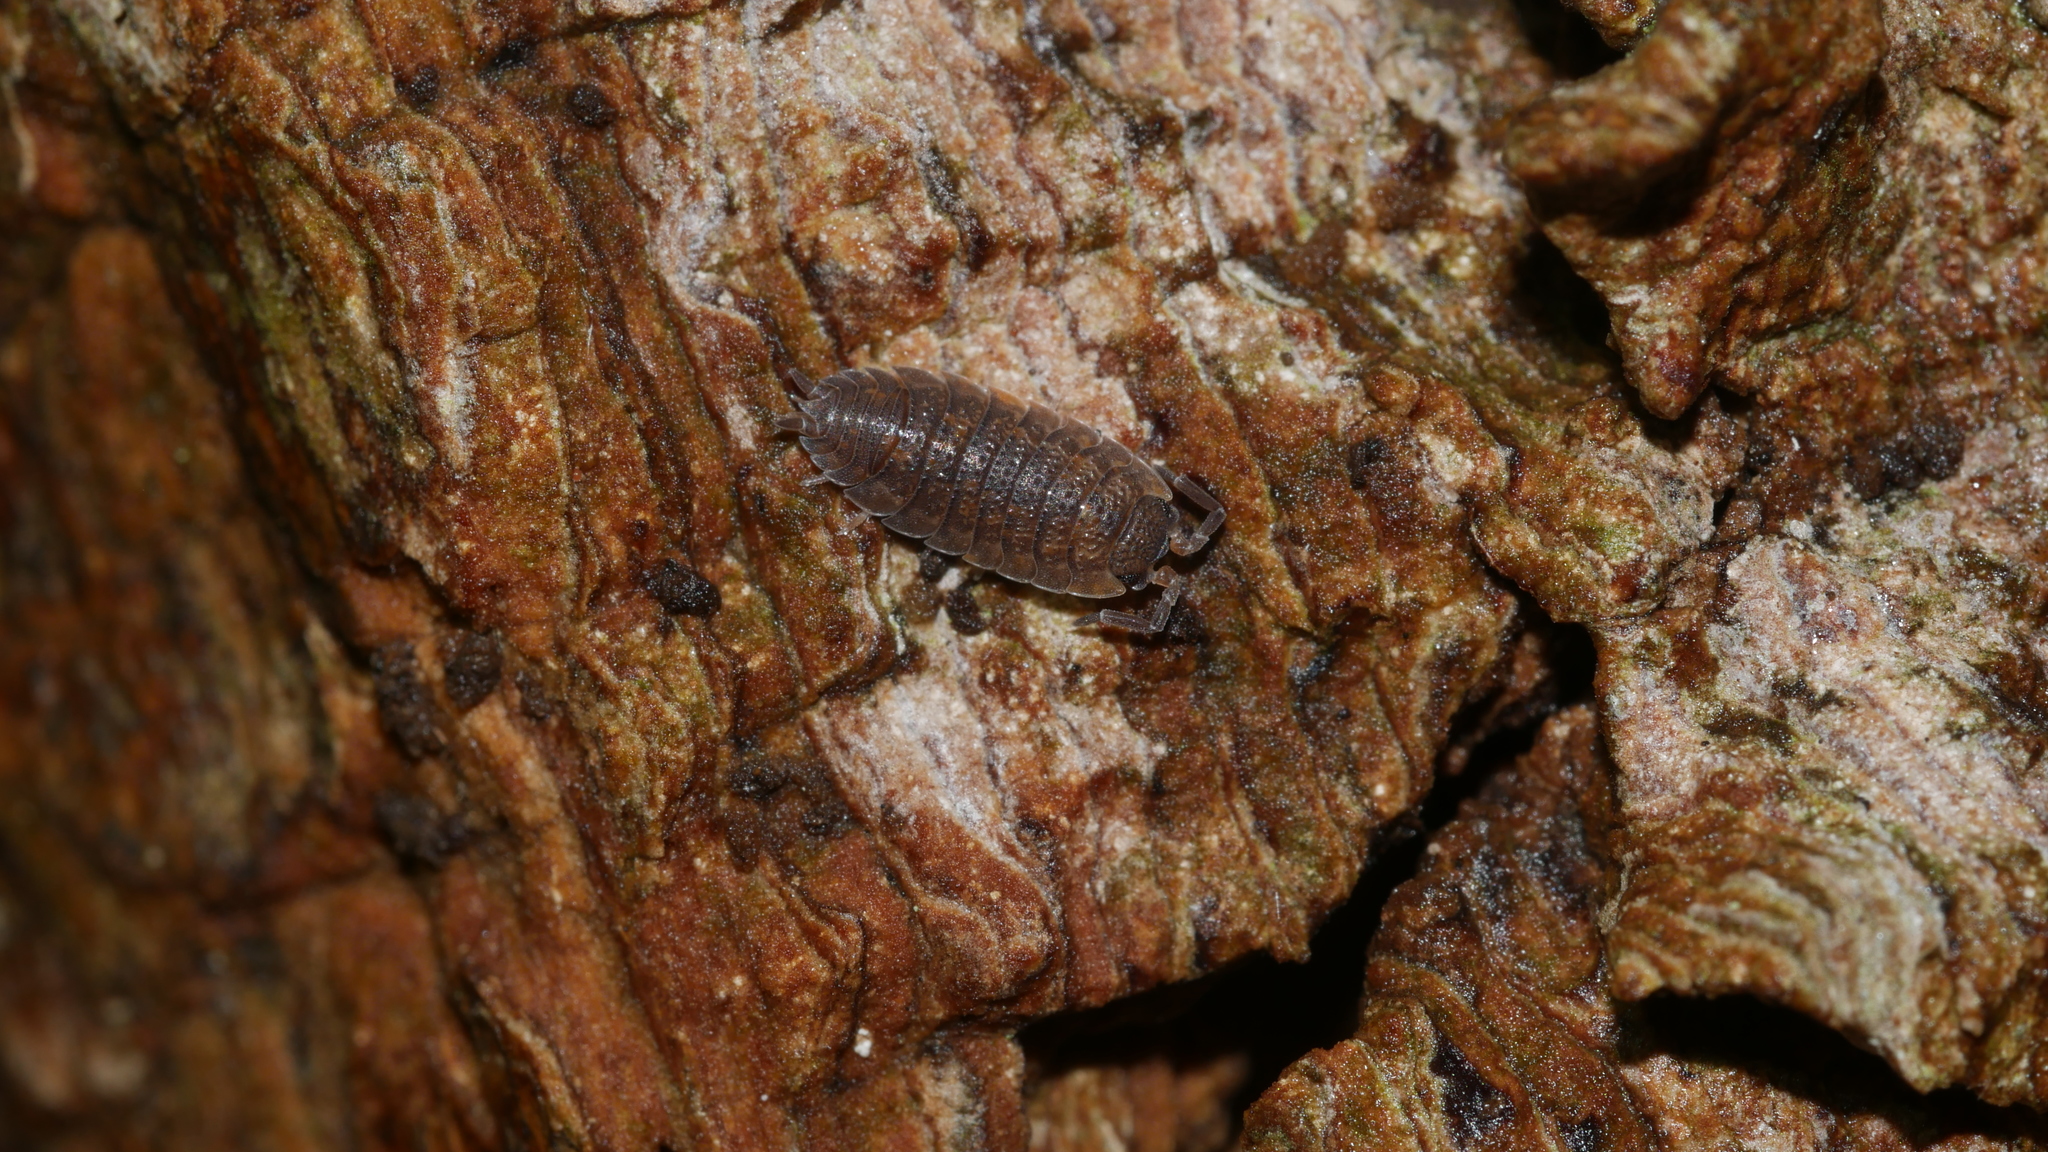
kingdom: Animalia
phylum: Arthropoda
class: Malacostraca
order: Isopoda
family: Porcellionidae
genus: Porcellio
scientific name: Porcellio scaber
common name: Common rough woodlouse
